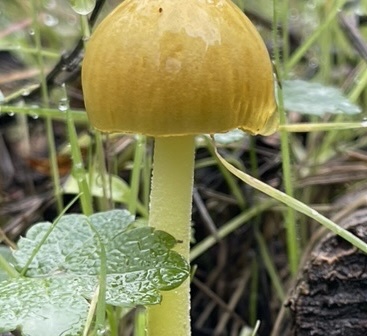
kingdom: Fungi
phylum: Basidiomycota
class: Agaricomycetes
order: Agaricales
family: Bolbitiaceae
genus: Bolbitius
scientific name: Bolbitius titubans
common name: Yellow fieldcap
